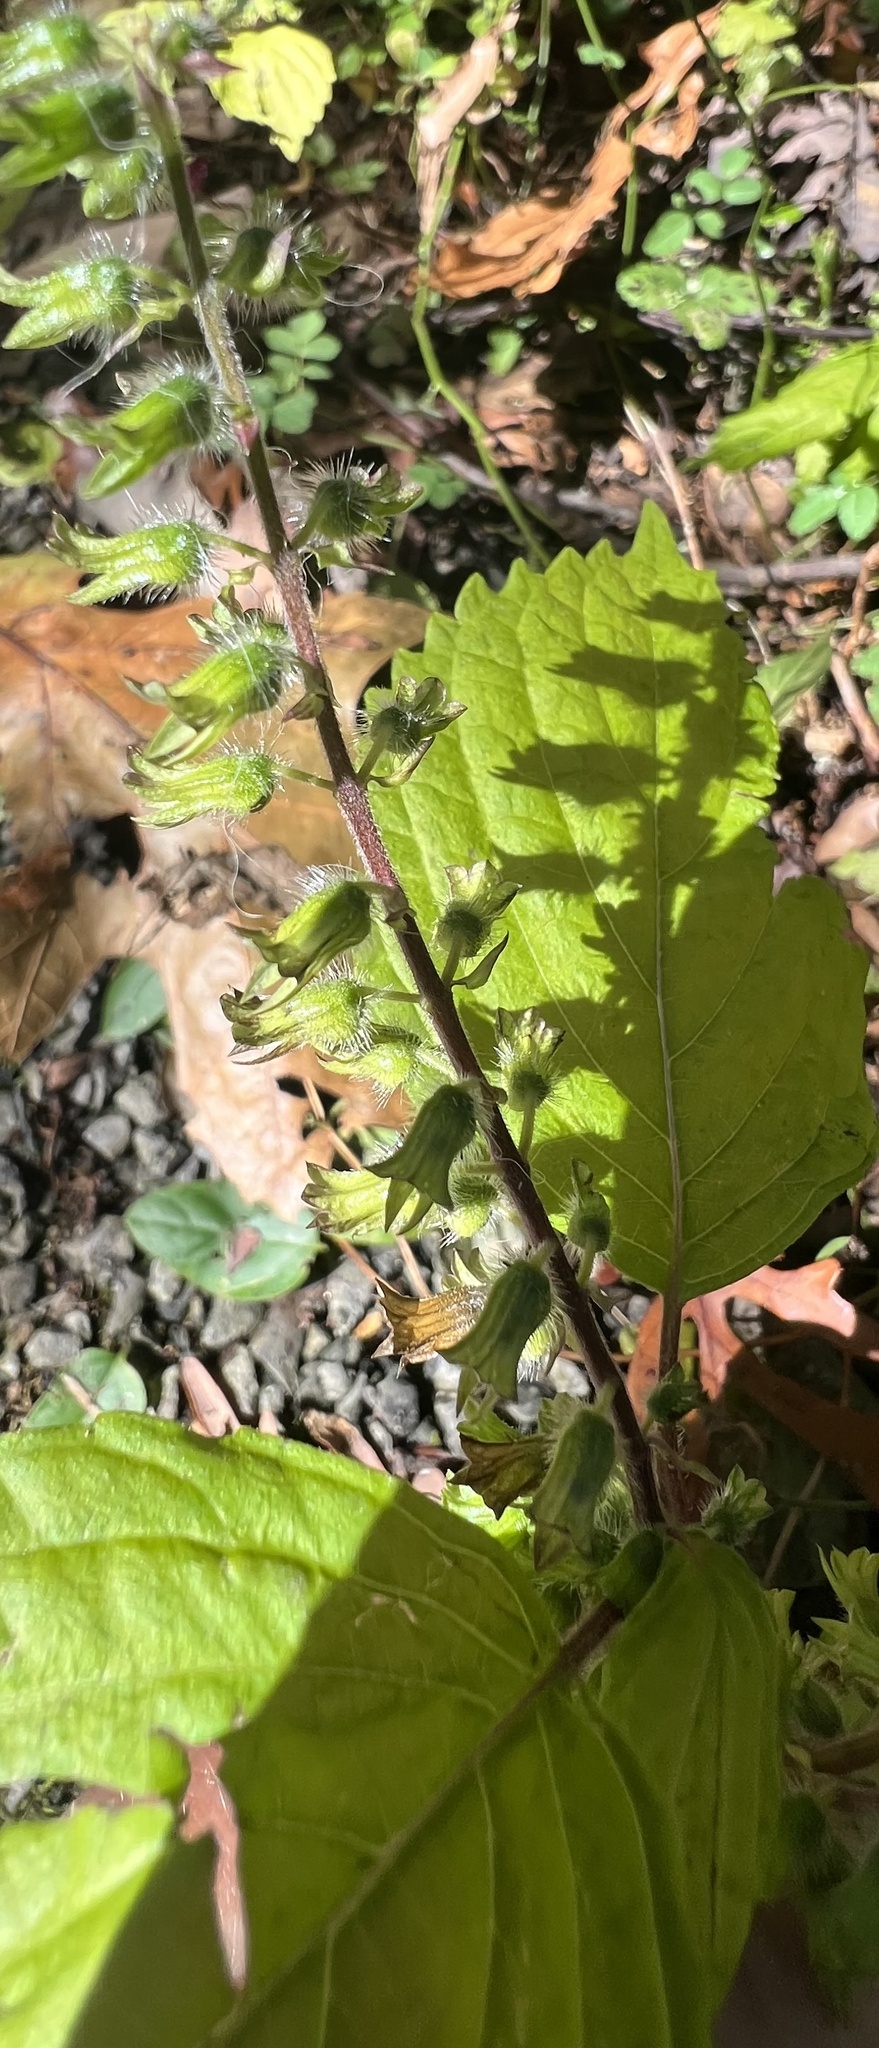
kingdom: Plantae
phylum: Tracheophyta
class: Magnoliopsida
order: Lamiales
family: Lamiaceae
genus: Perilla
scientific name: Perilla frutescens
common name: Perilla
